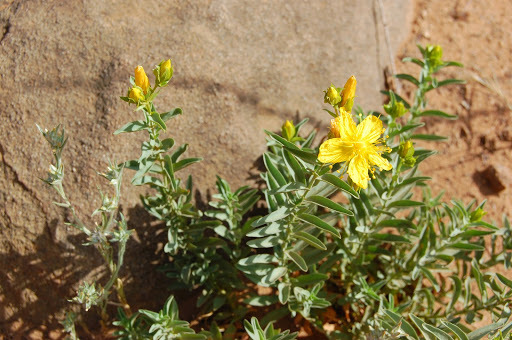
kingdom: Plantae
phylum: Tracheophyta
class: Magnoliopsida
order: Malpighiales
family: Hypericaceae
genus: Hypericum
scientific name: Hypericum concinnum
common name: Gold-wire
